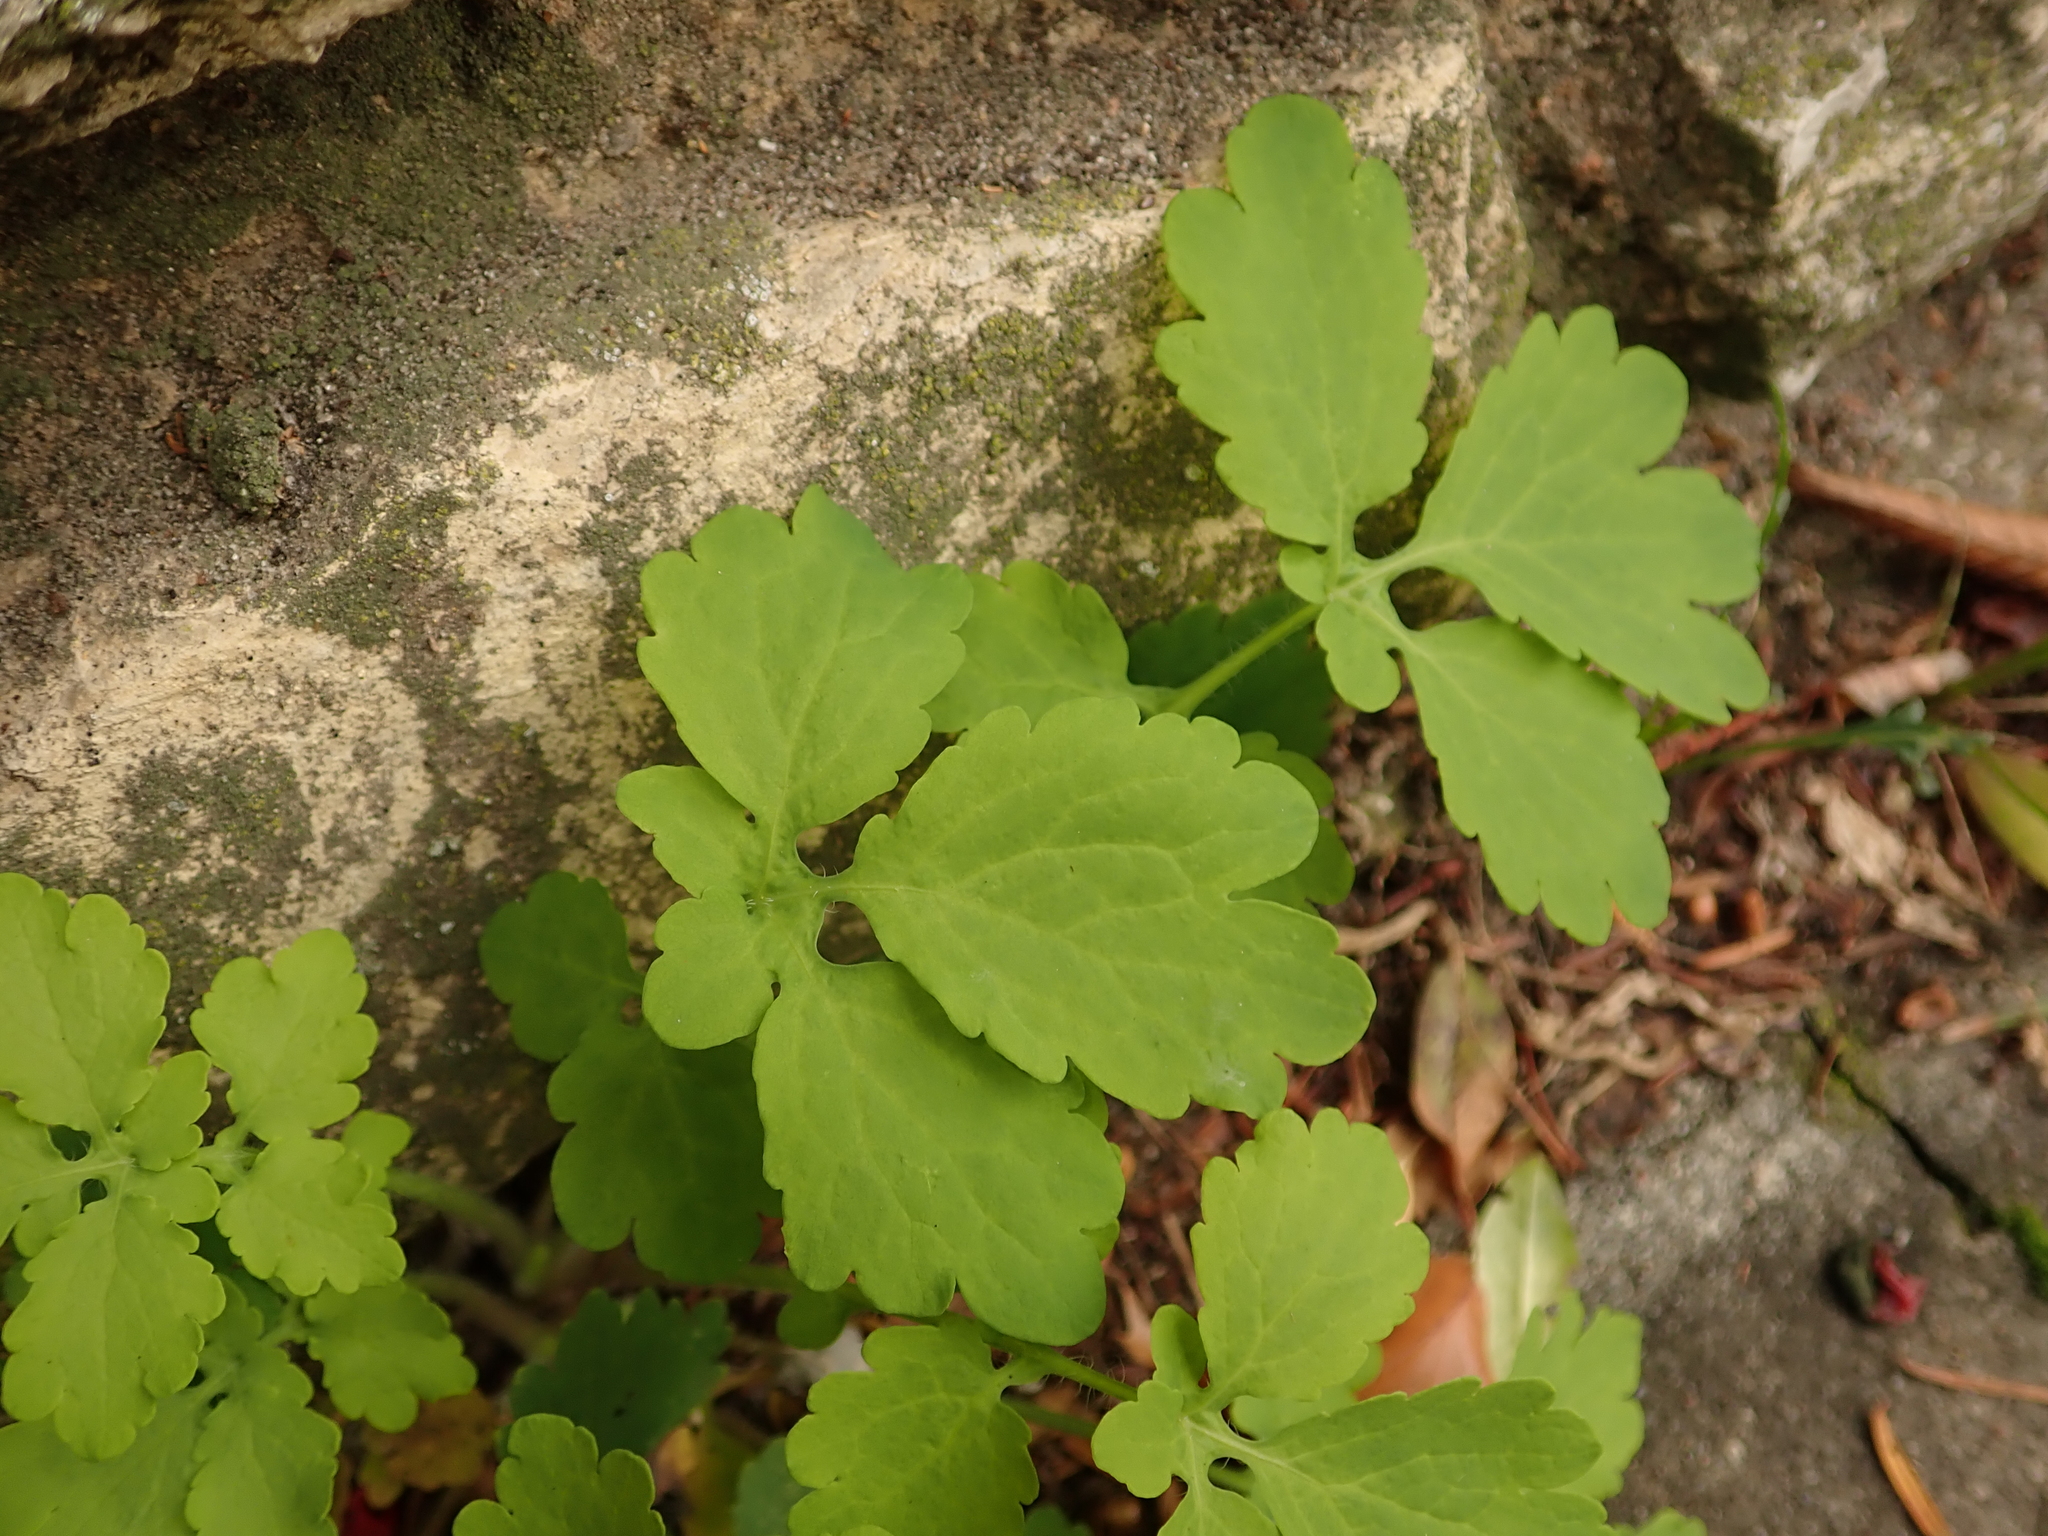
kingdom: Plantae
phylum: Tracheophyta
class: Magnoliopsida
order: Ranunculales
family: Papaveraceae
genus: Chelidonium
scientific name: Chelidonium majus
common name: Greater celandine
